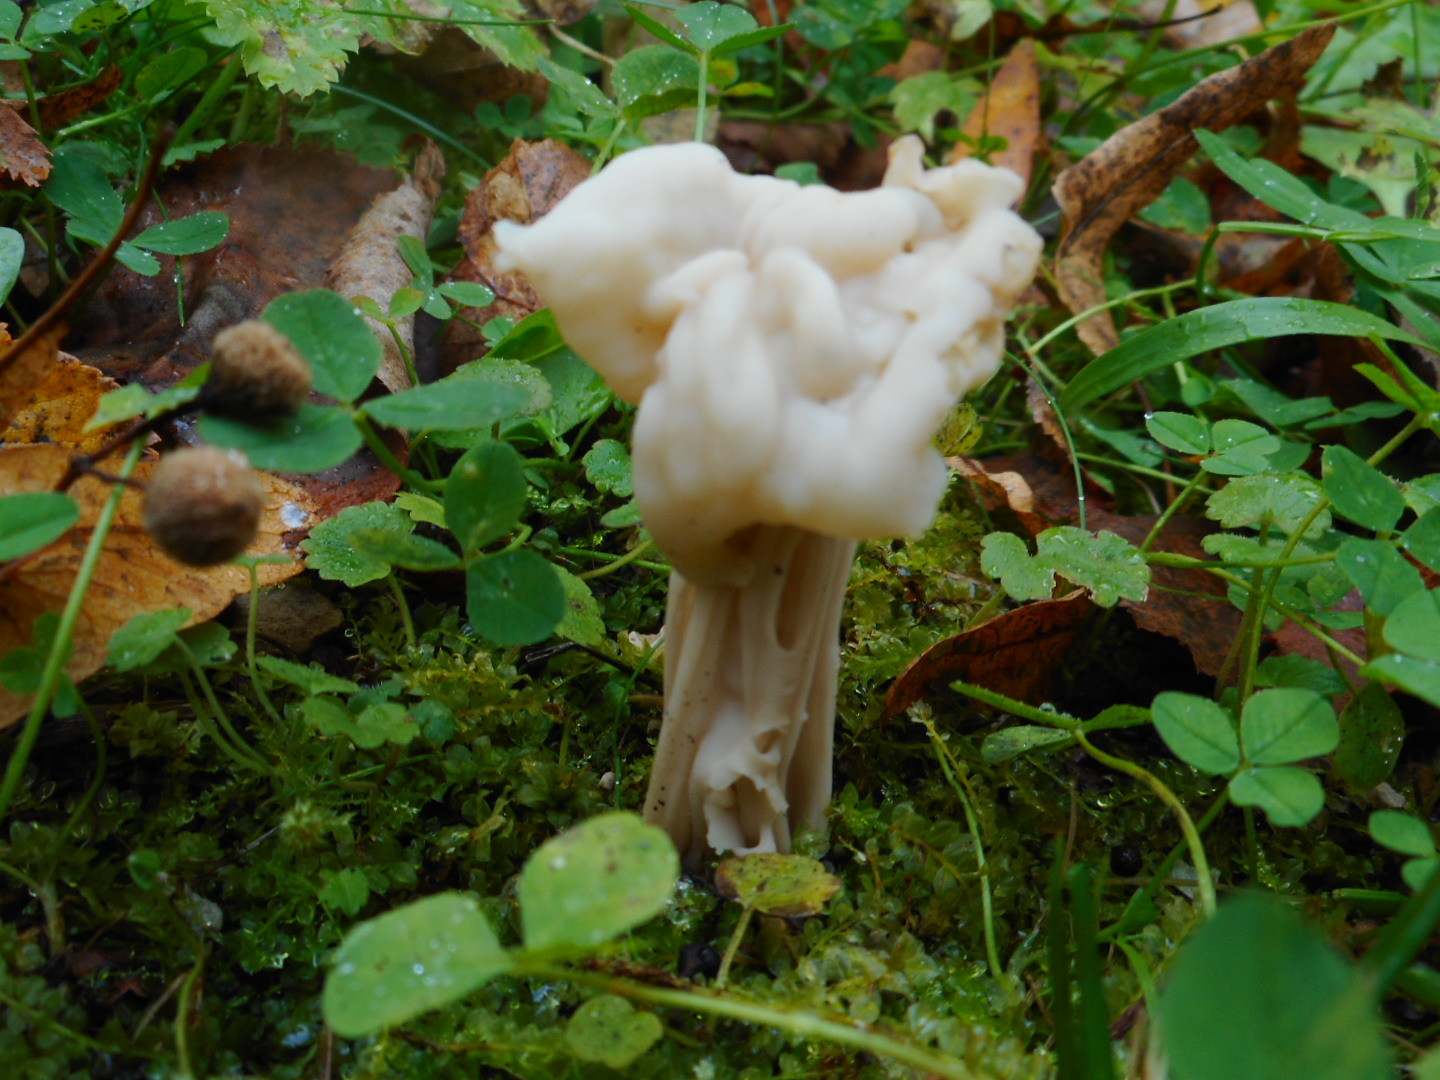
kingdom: Fungi
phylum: Ascomycota
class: Pezizomycetes
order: Pezizales
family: Helvellaceae
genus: Helvella
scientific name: Helvella crispa
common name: White saddle
